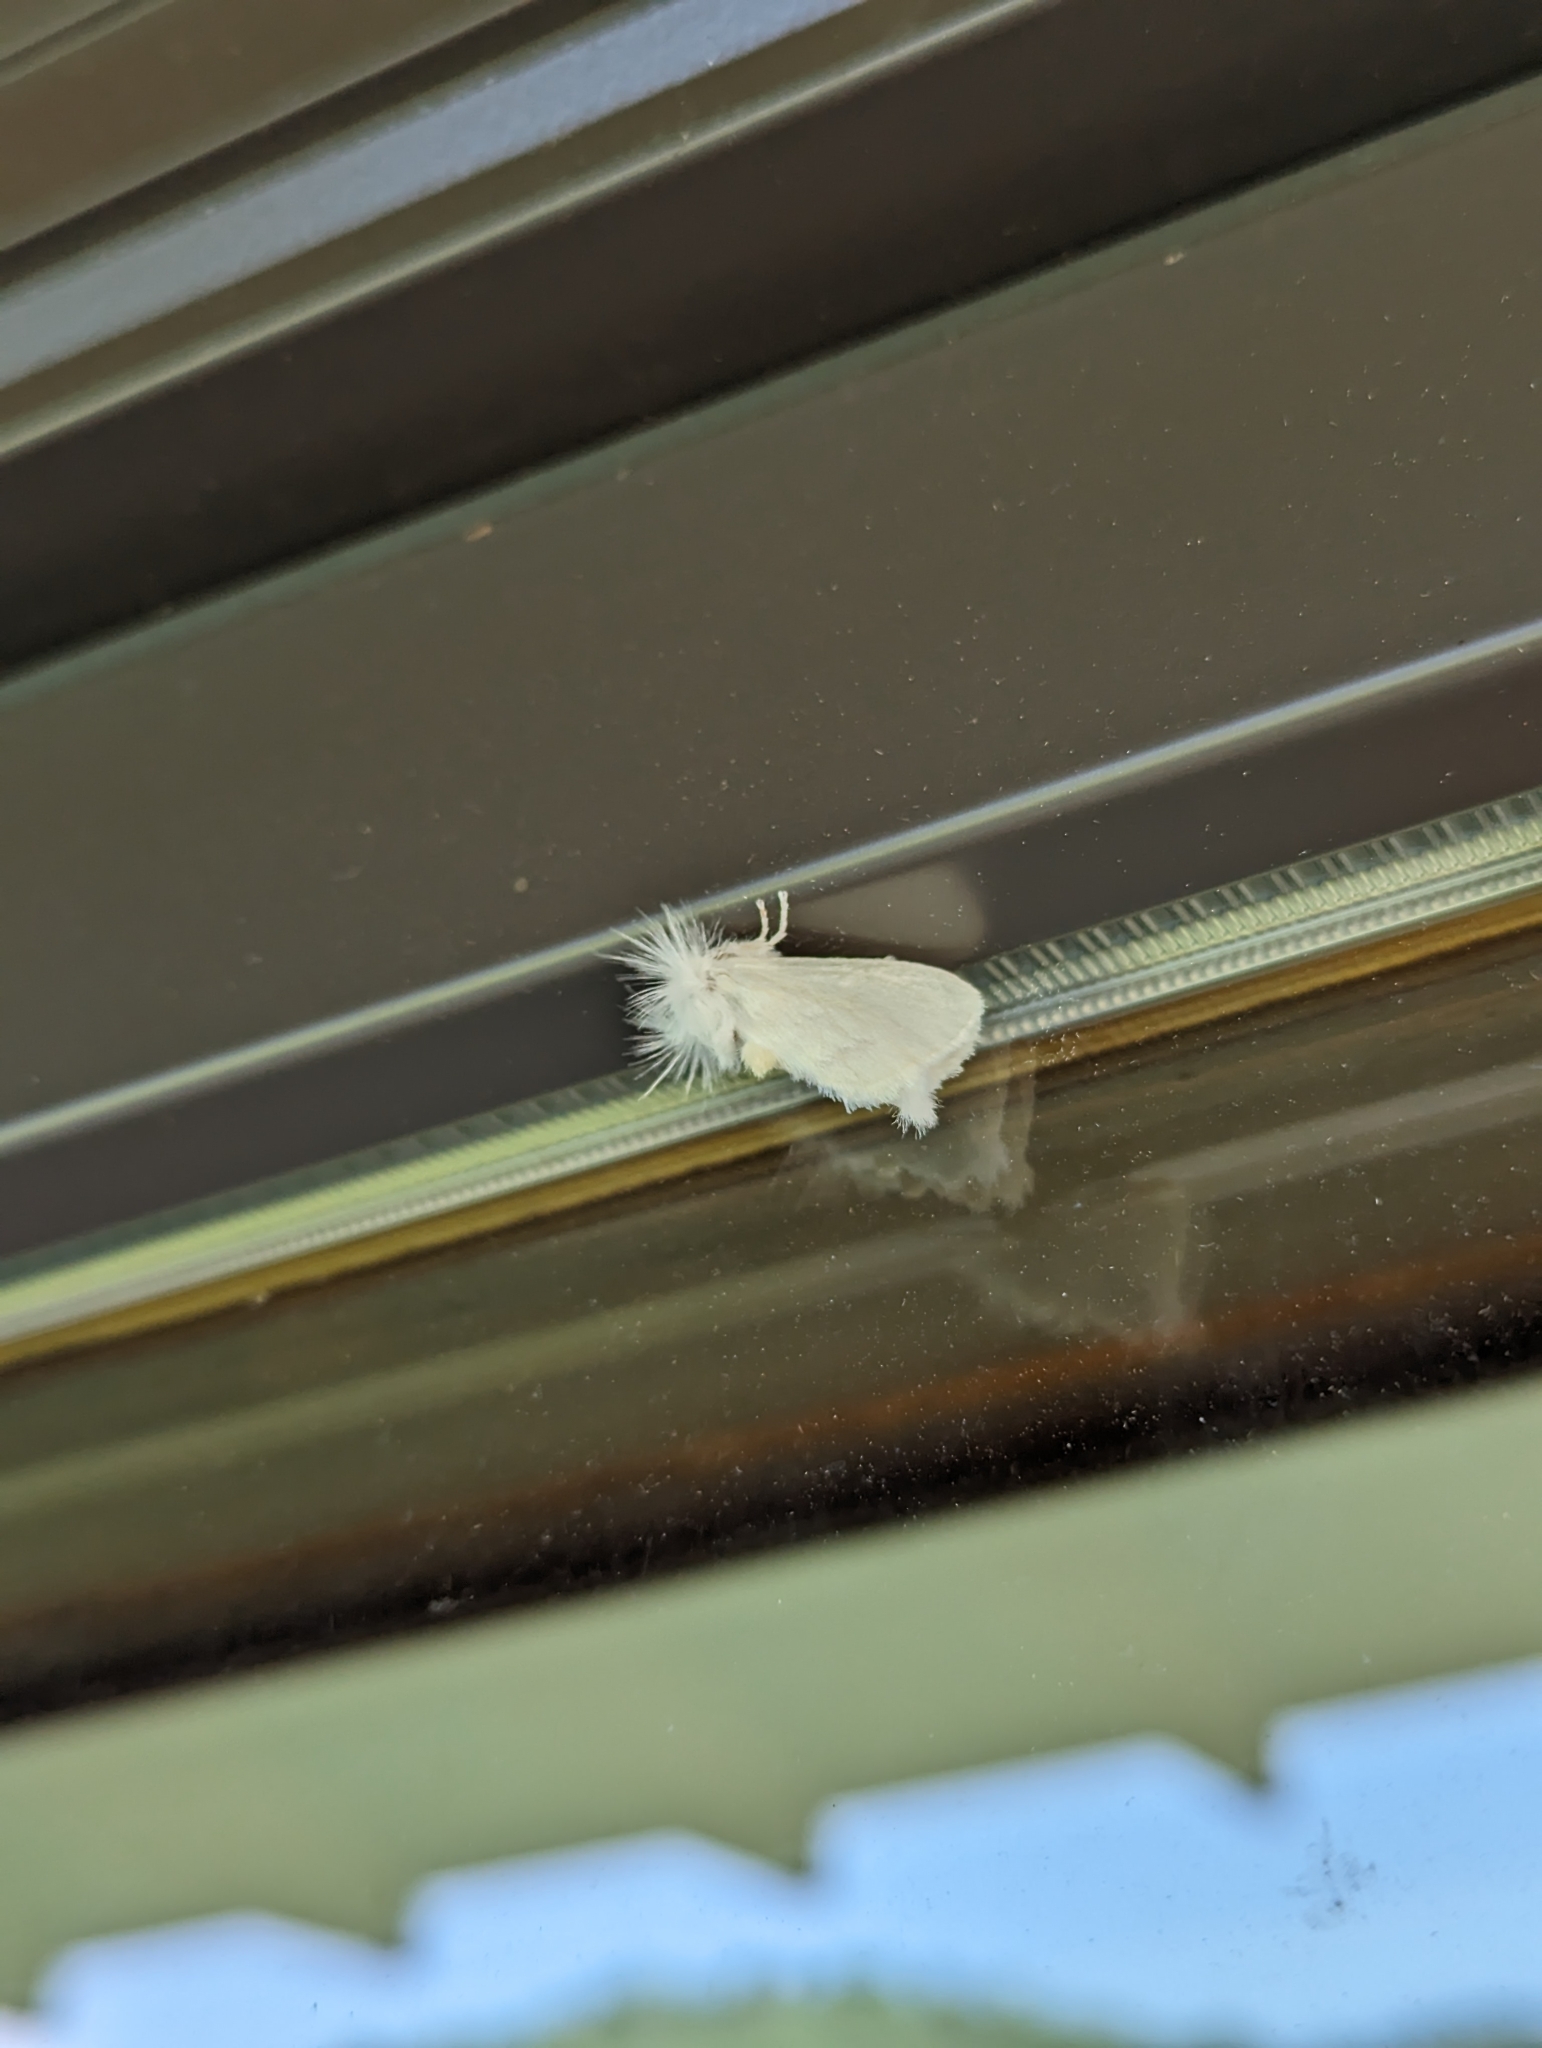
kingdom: Animalia
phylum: Arthropoda
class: Insecta
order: Lepidoptera
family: Megalopygidae
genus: Norape
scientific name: Norape cretata
